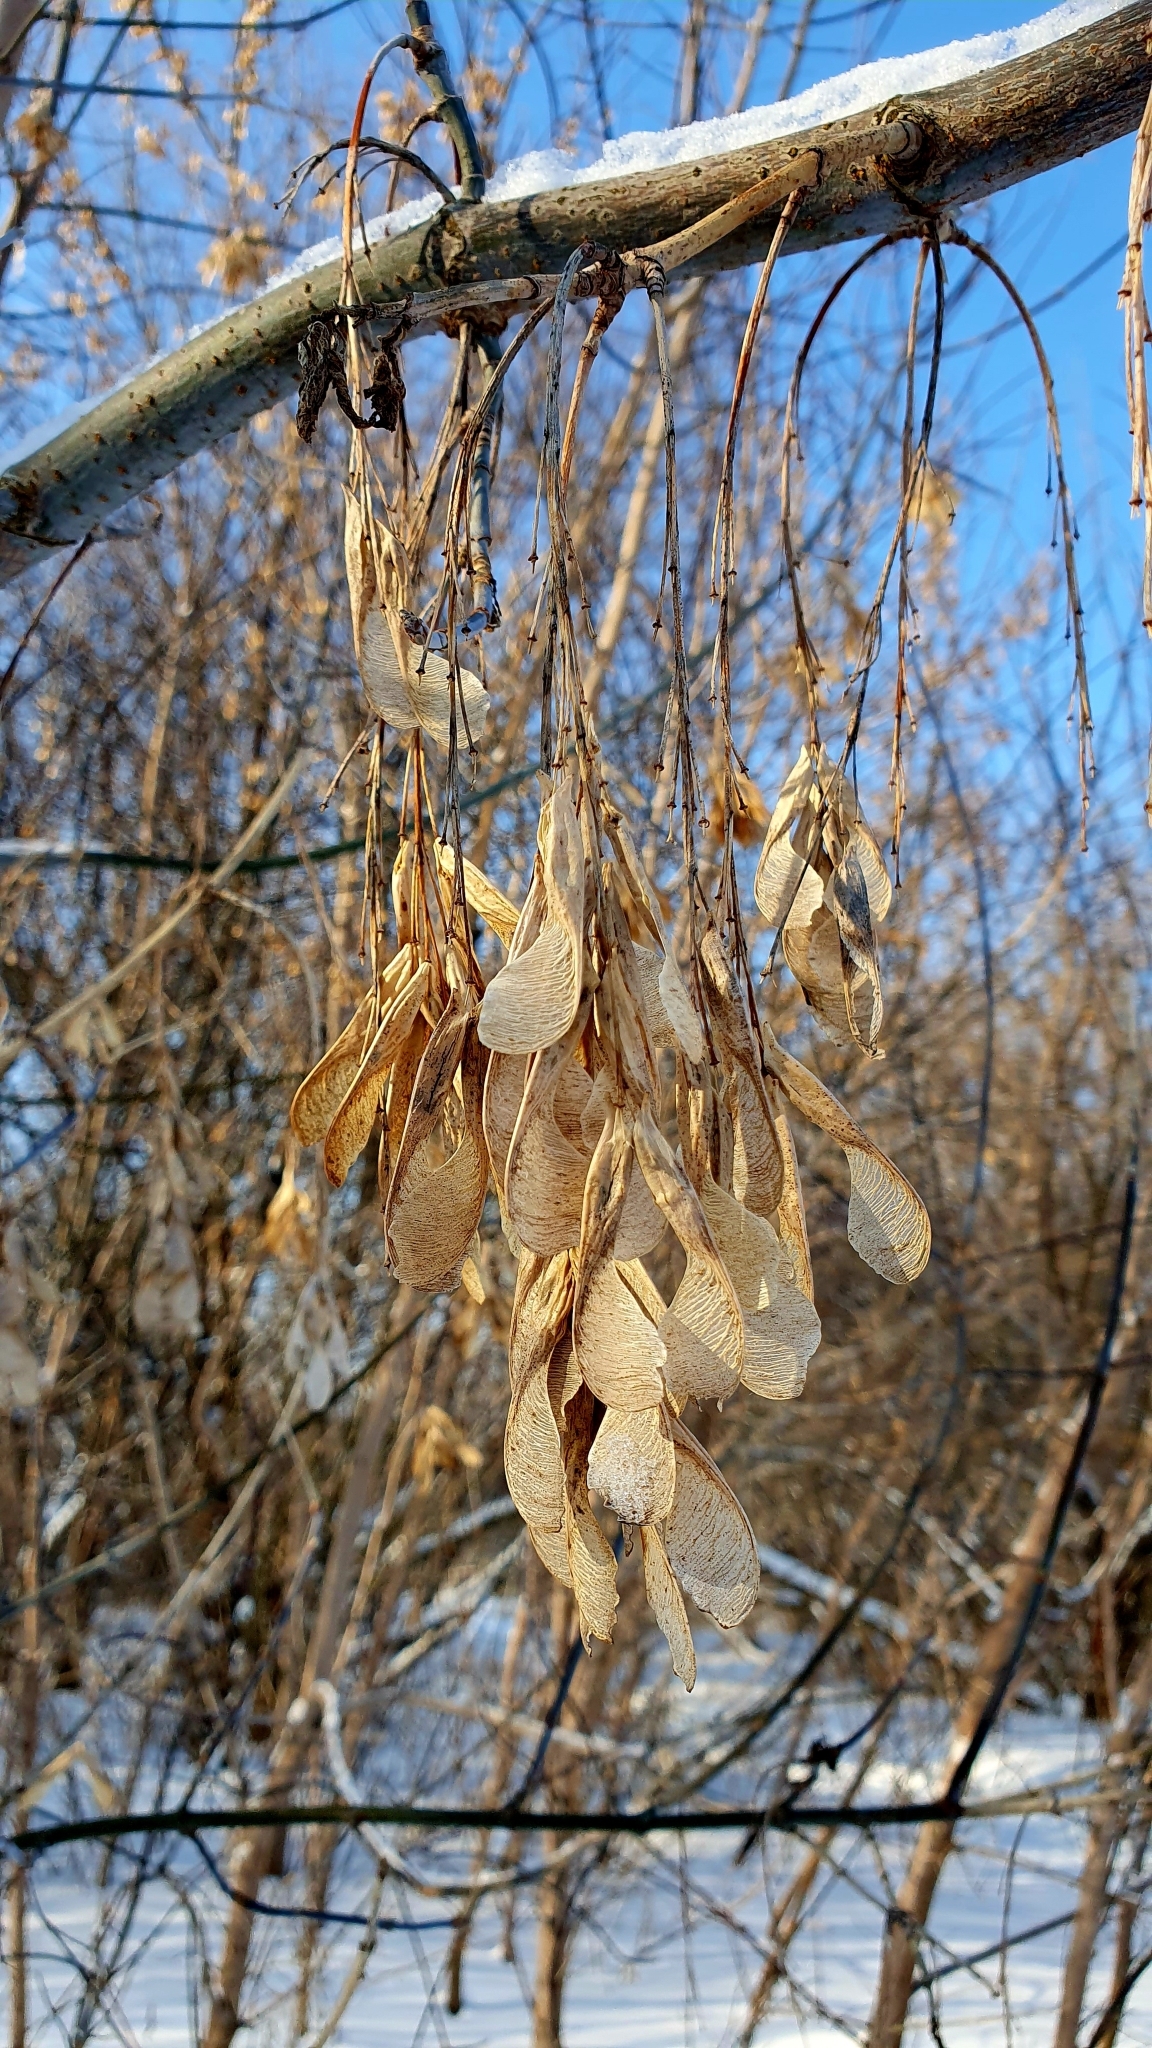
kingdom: Plantae
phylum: Tracheophyta
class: Magnoliopsida
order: Sapindales
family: Sapindaceae
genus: Acer
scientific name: Acer negundo
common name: Ashleaf maple
